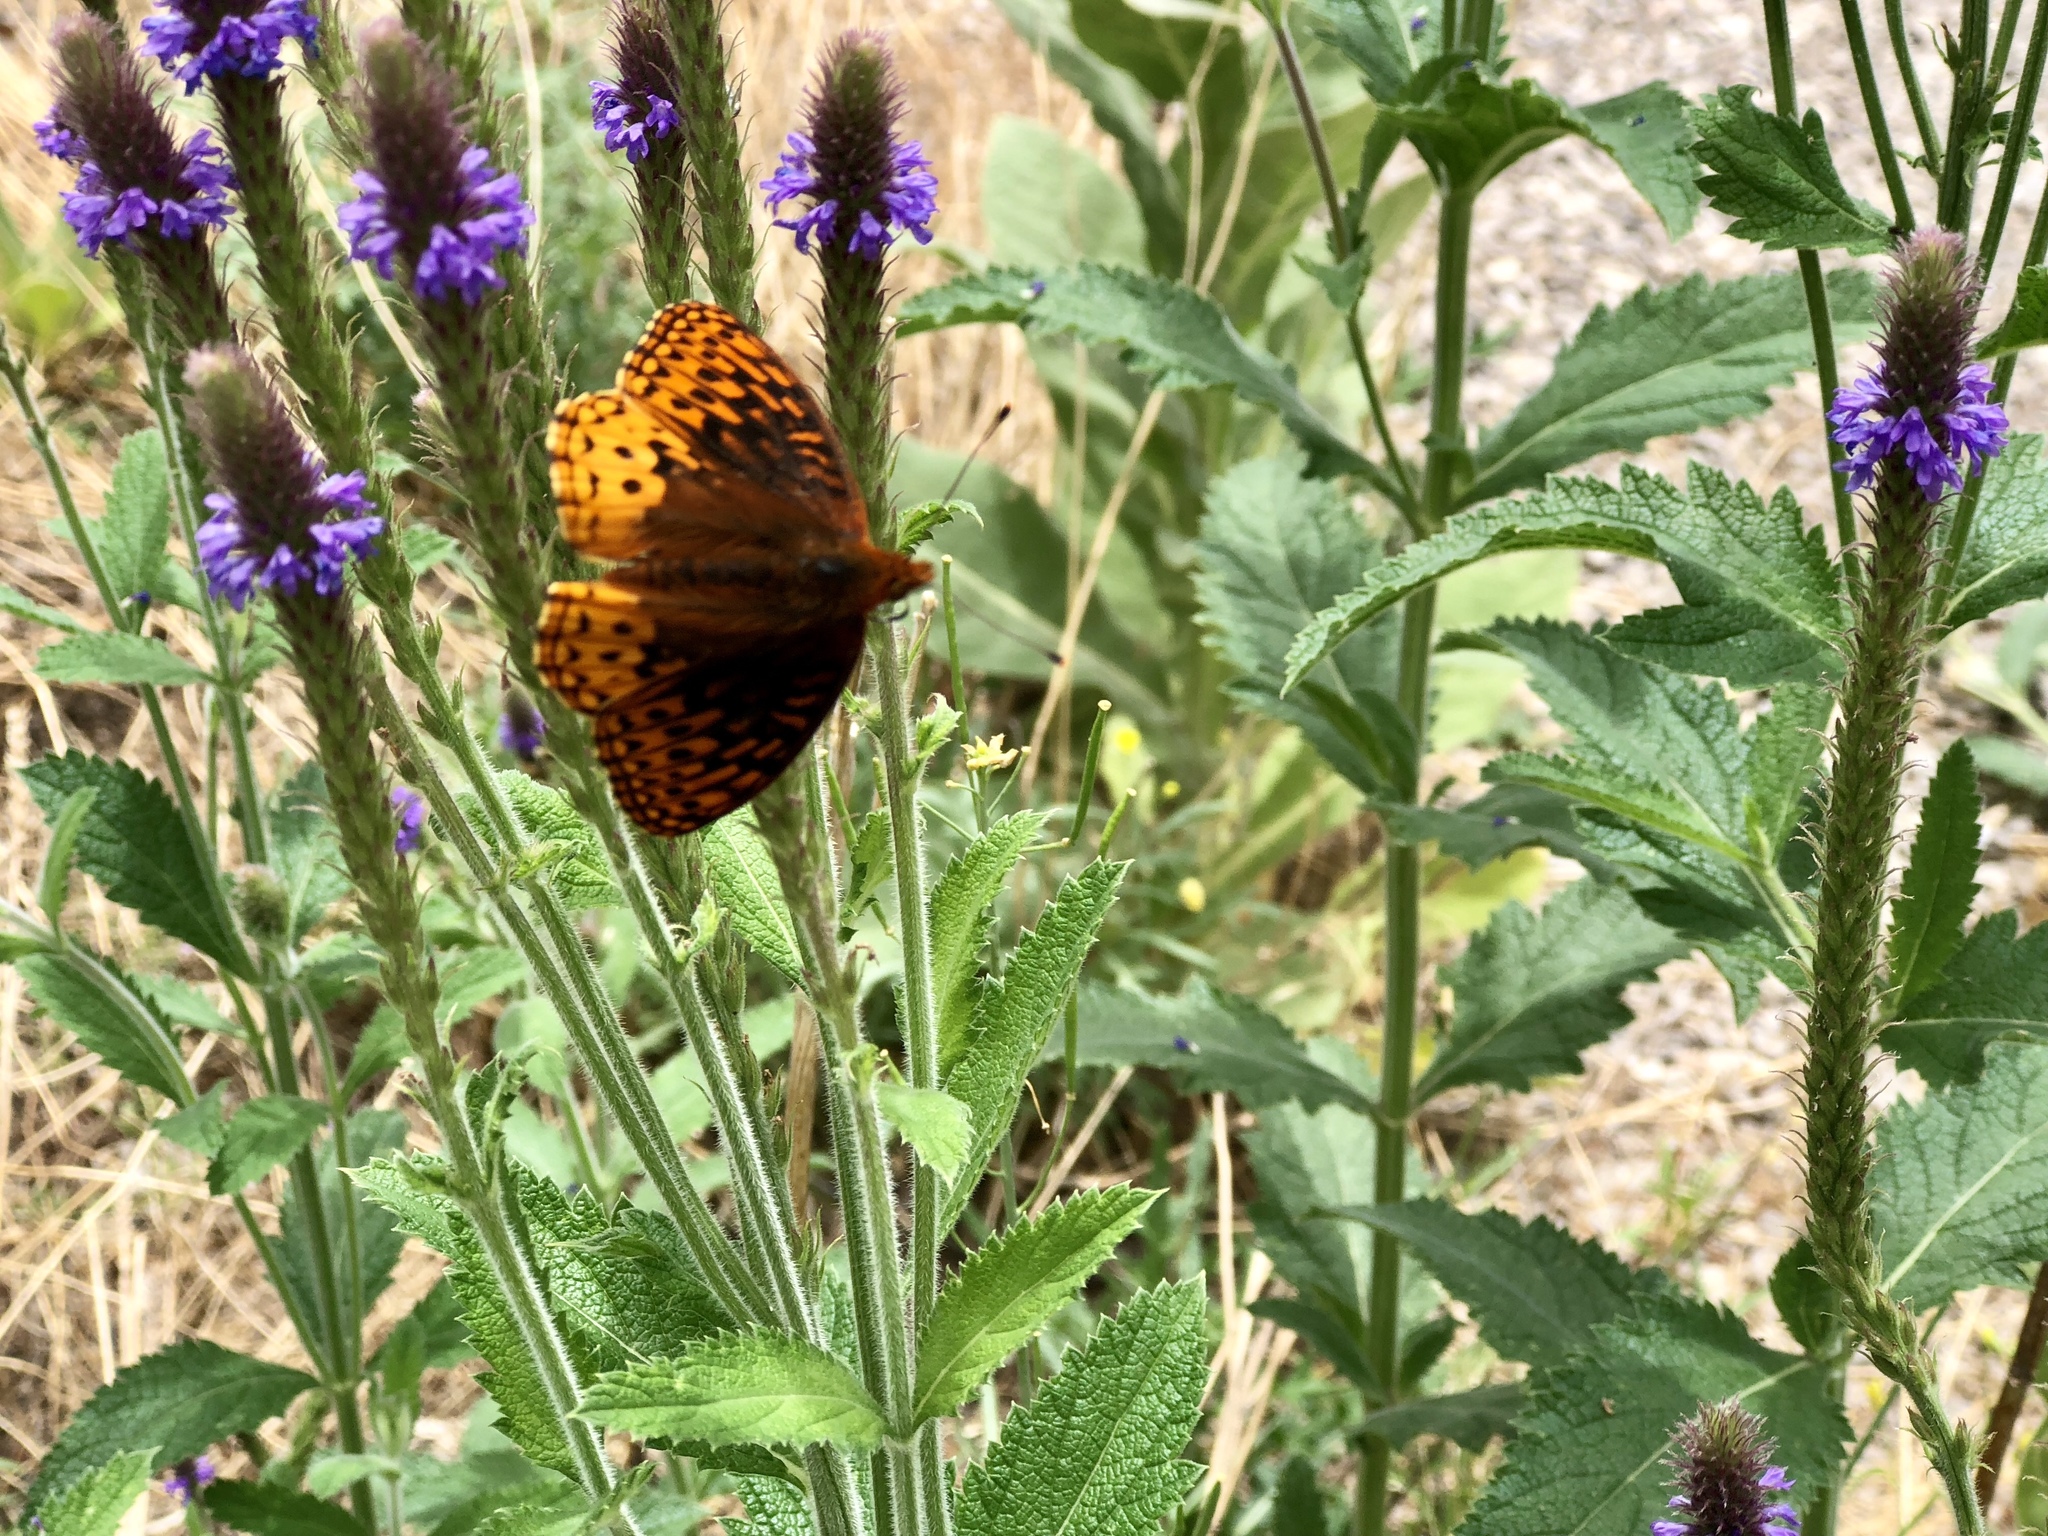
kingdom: Animalia
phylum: Arthropoda
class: Insecta
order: Lepidoptera
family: Nymphalidae
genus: Speyeria
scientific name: Speyeria atlantis
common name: Atlantis fritillary
